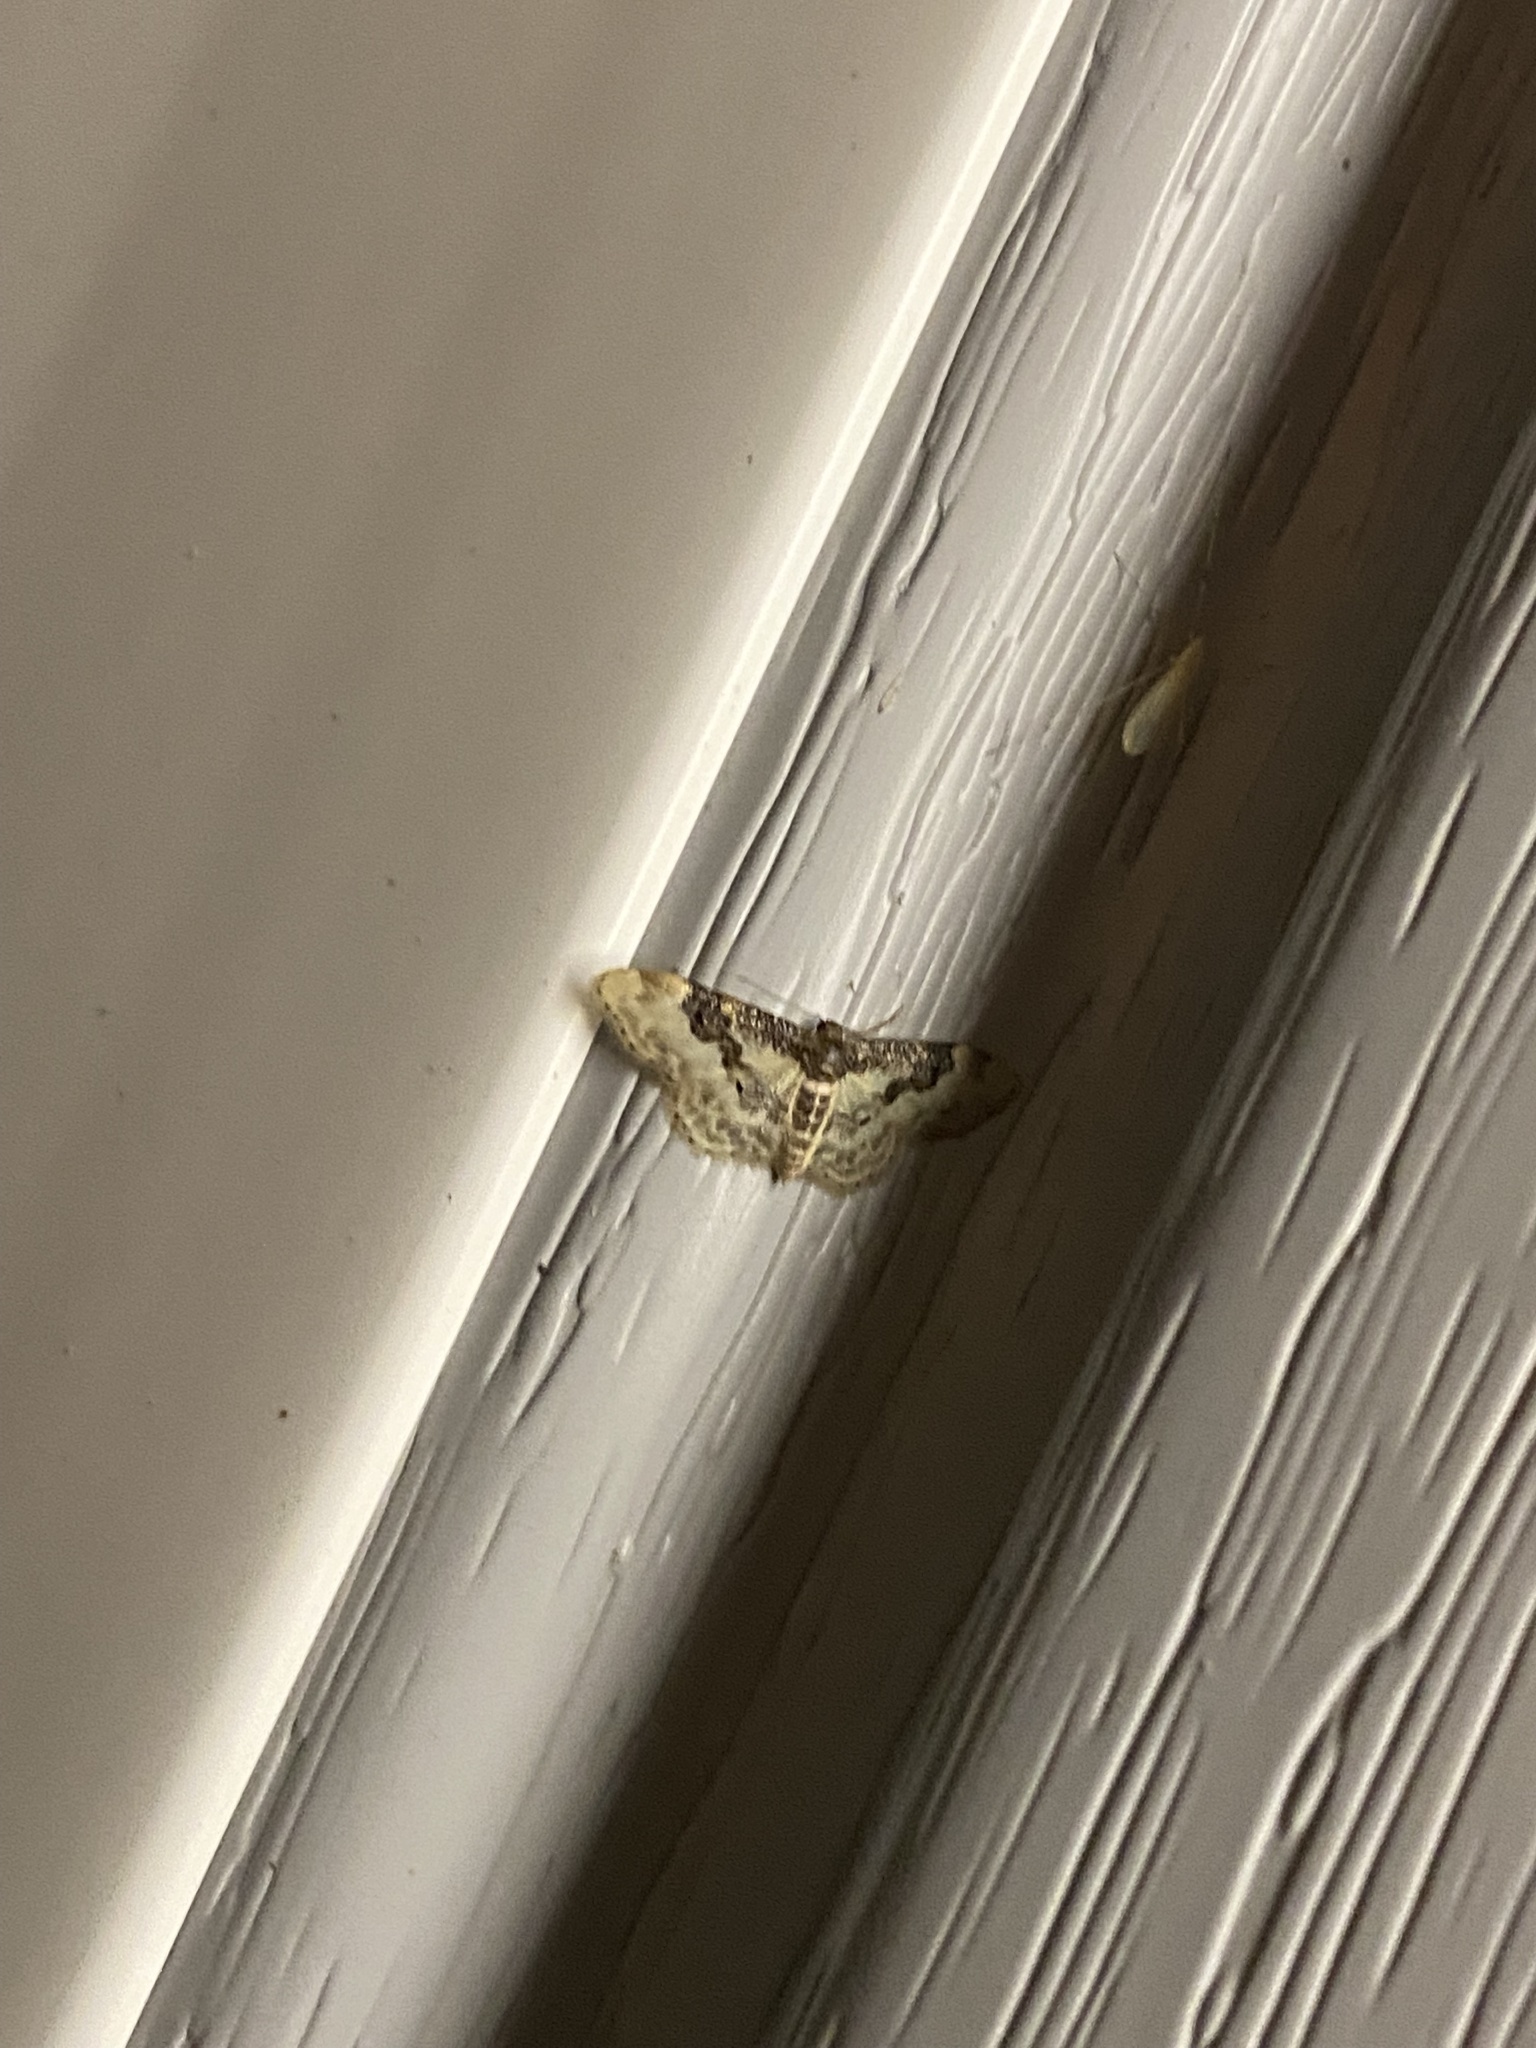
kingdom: Animalia
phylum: Arthropoda
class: Insecta
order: Lepidoptera
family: Geometridae
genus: Idaea
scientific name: Idaea rusticata
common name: Least carpet
